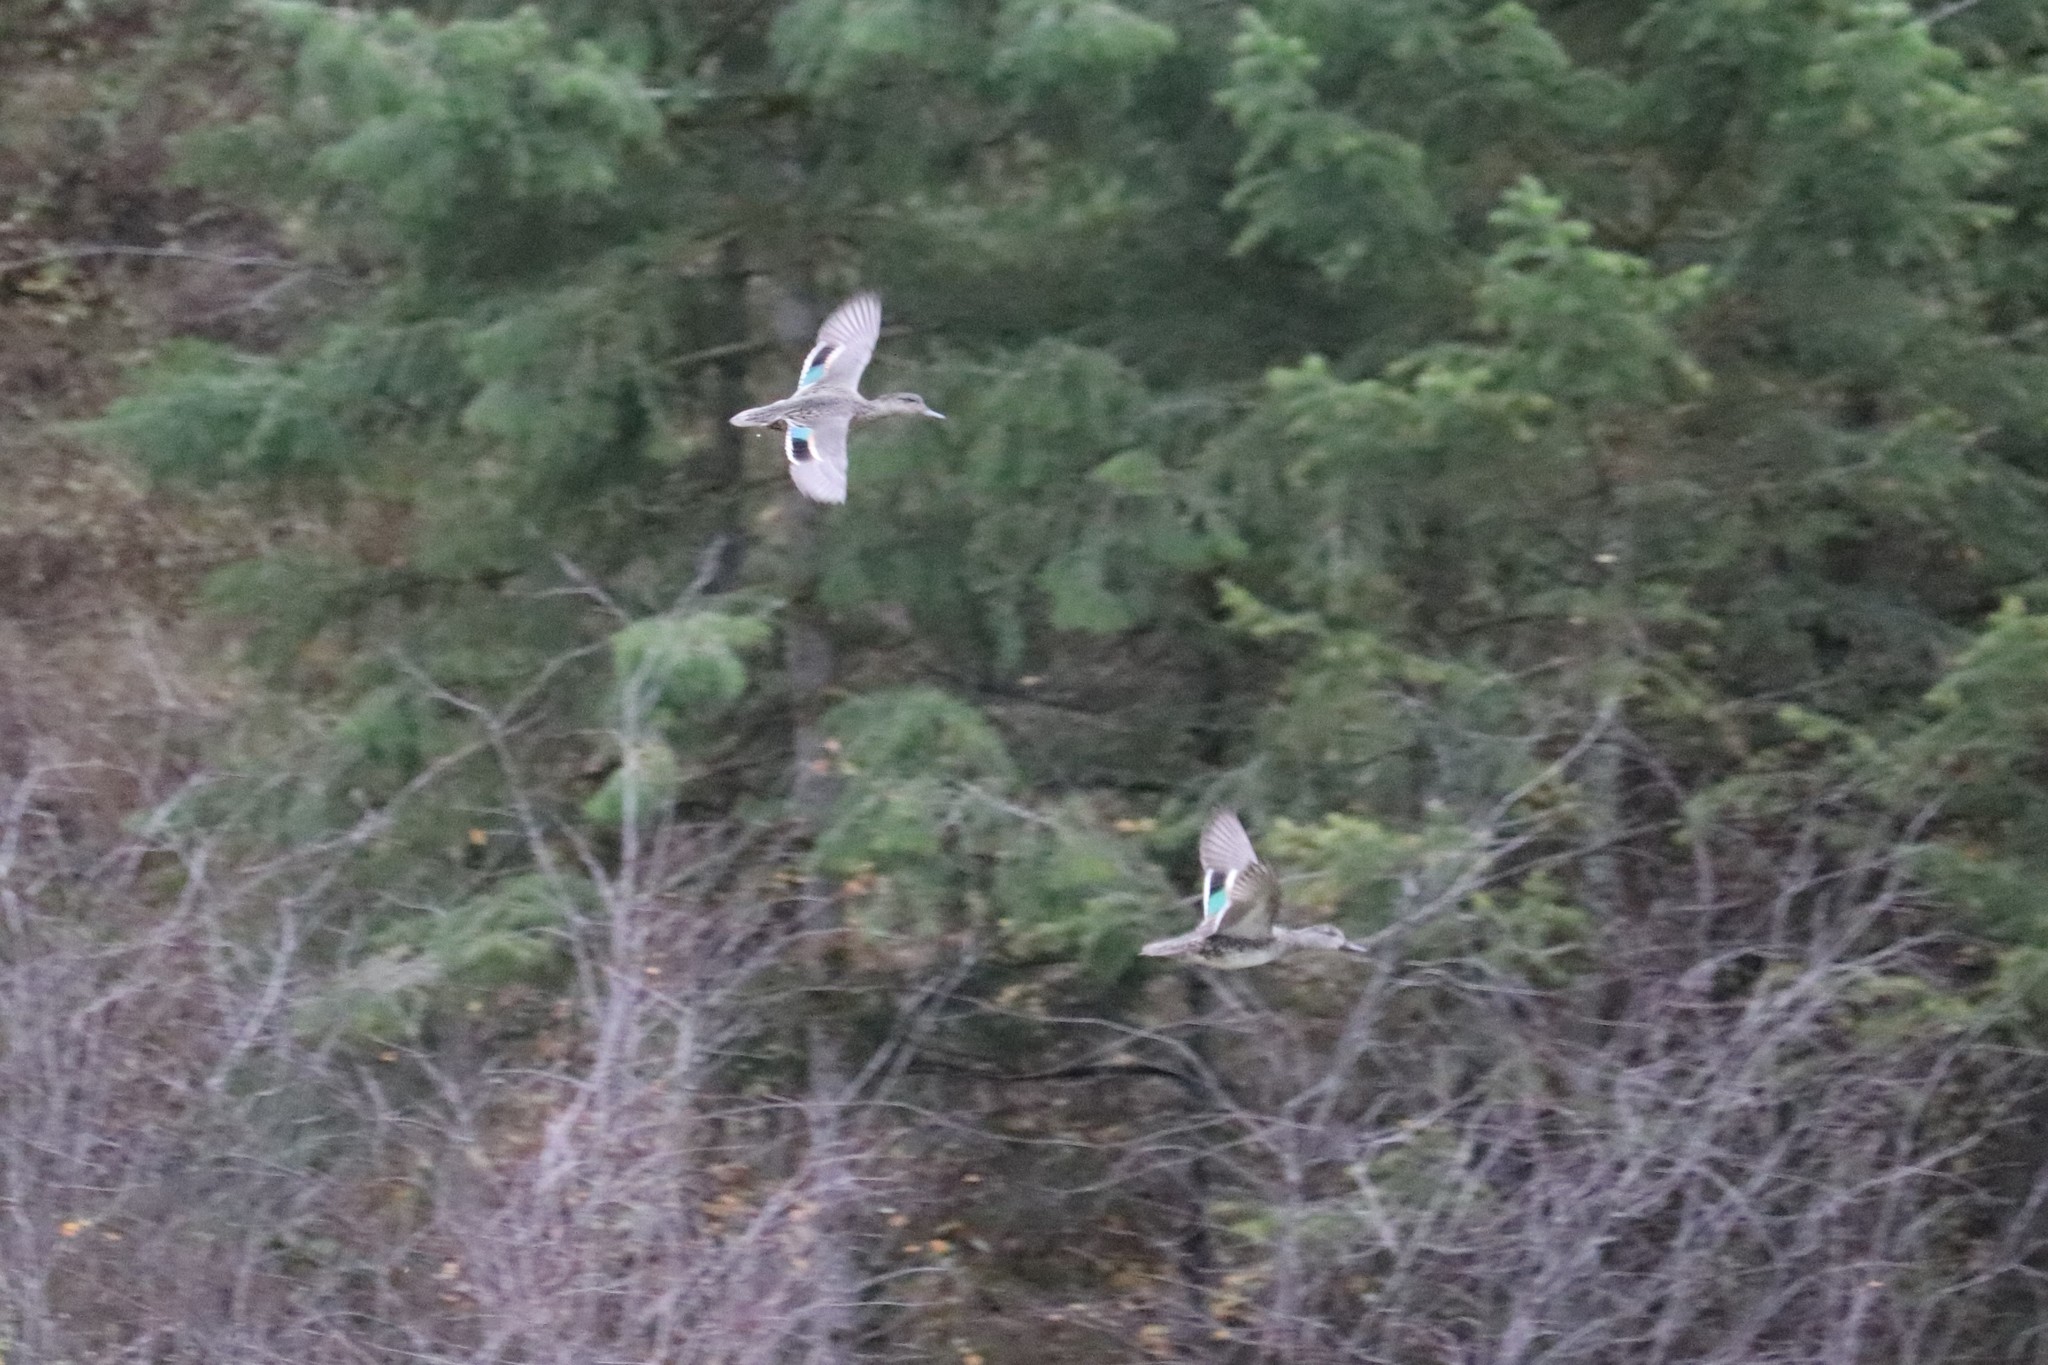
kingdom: Animalia
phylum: Chordata
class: Aves
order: Anseriformes
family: Anatidae
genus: Anas
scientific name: Anas crecca
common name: Eurasian teal
